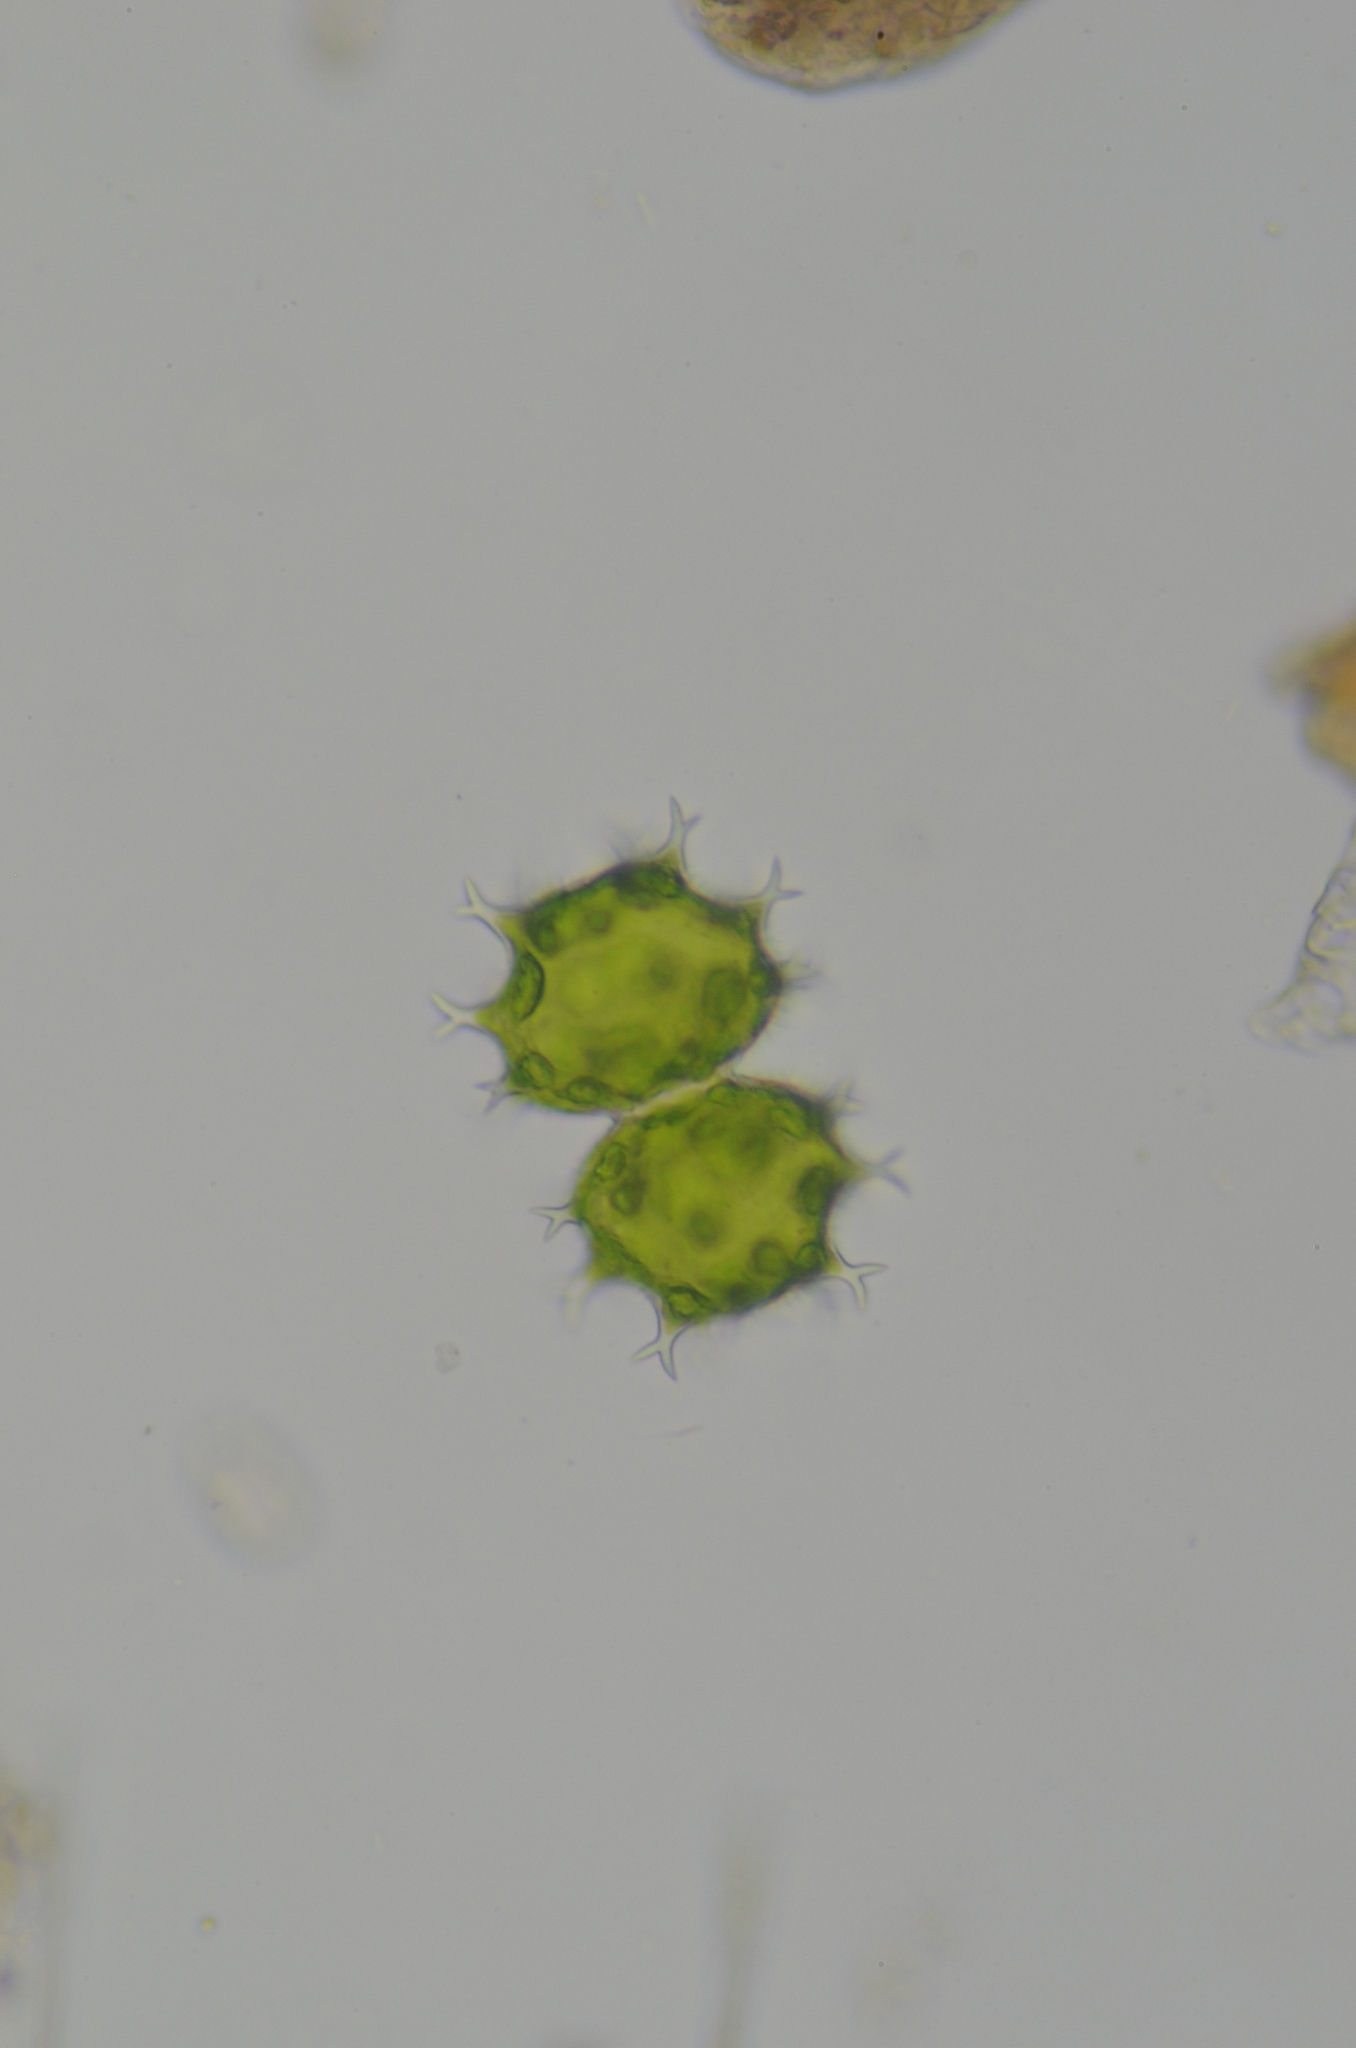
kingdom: Plantae
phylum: Charophyta
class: Conjugatophyceae
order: Desmidiales
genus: Xanthidium
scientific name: Xanthidium armatum
